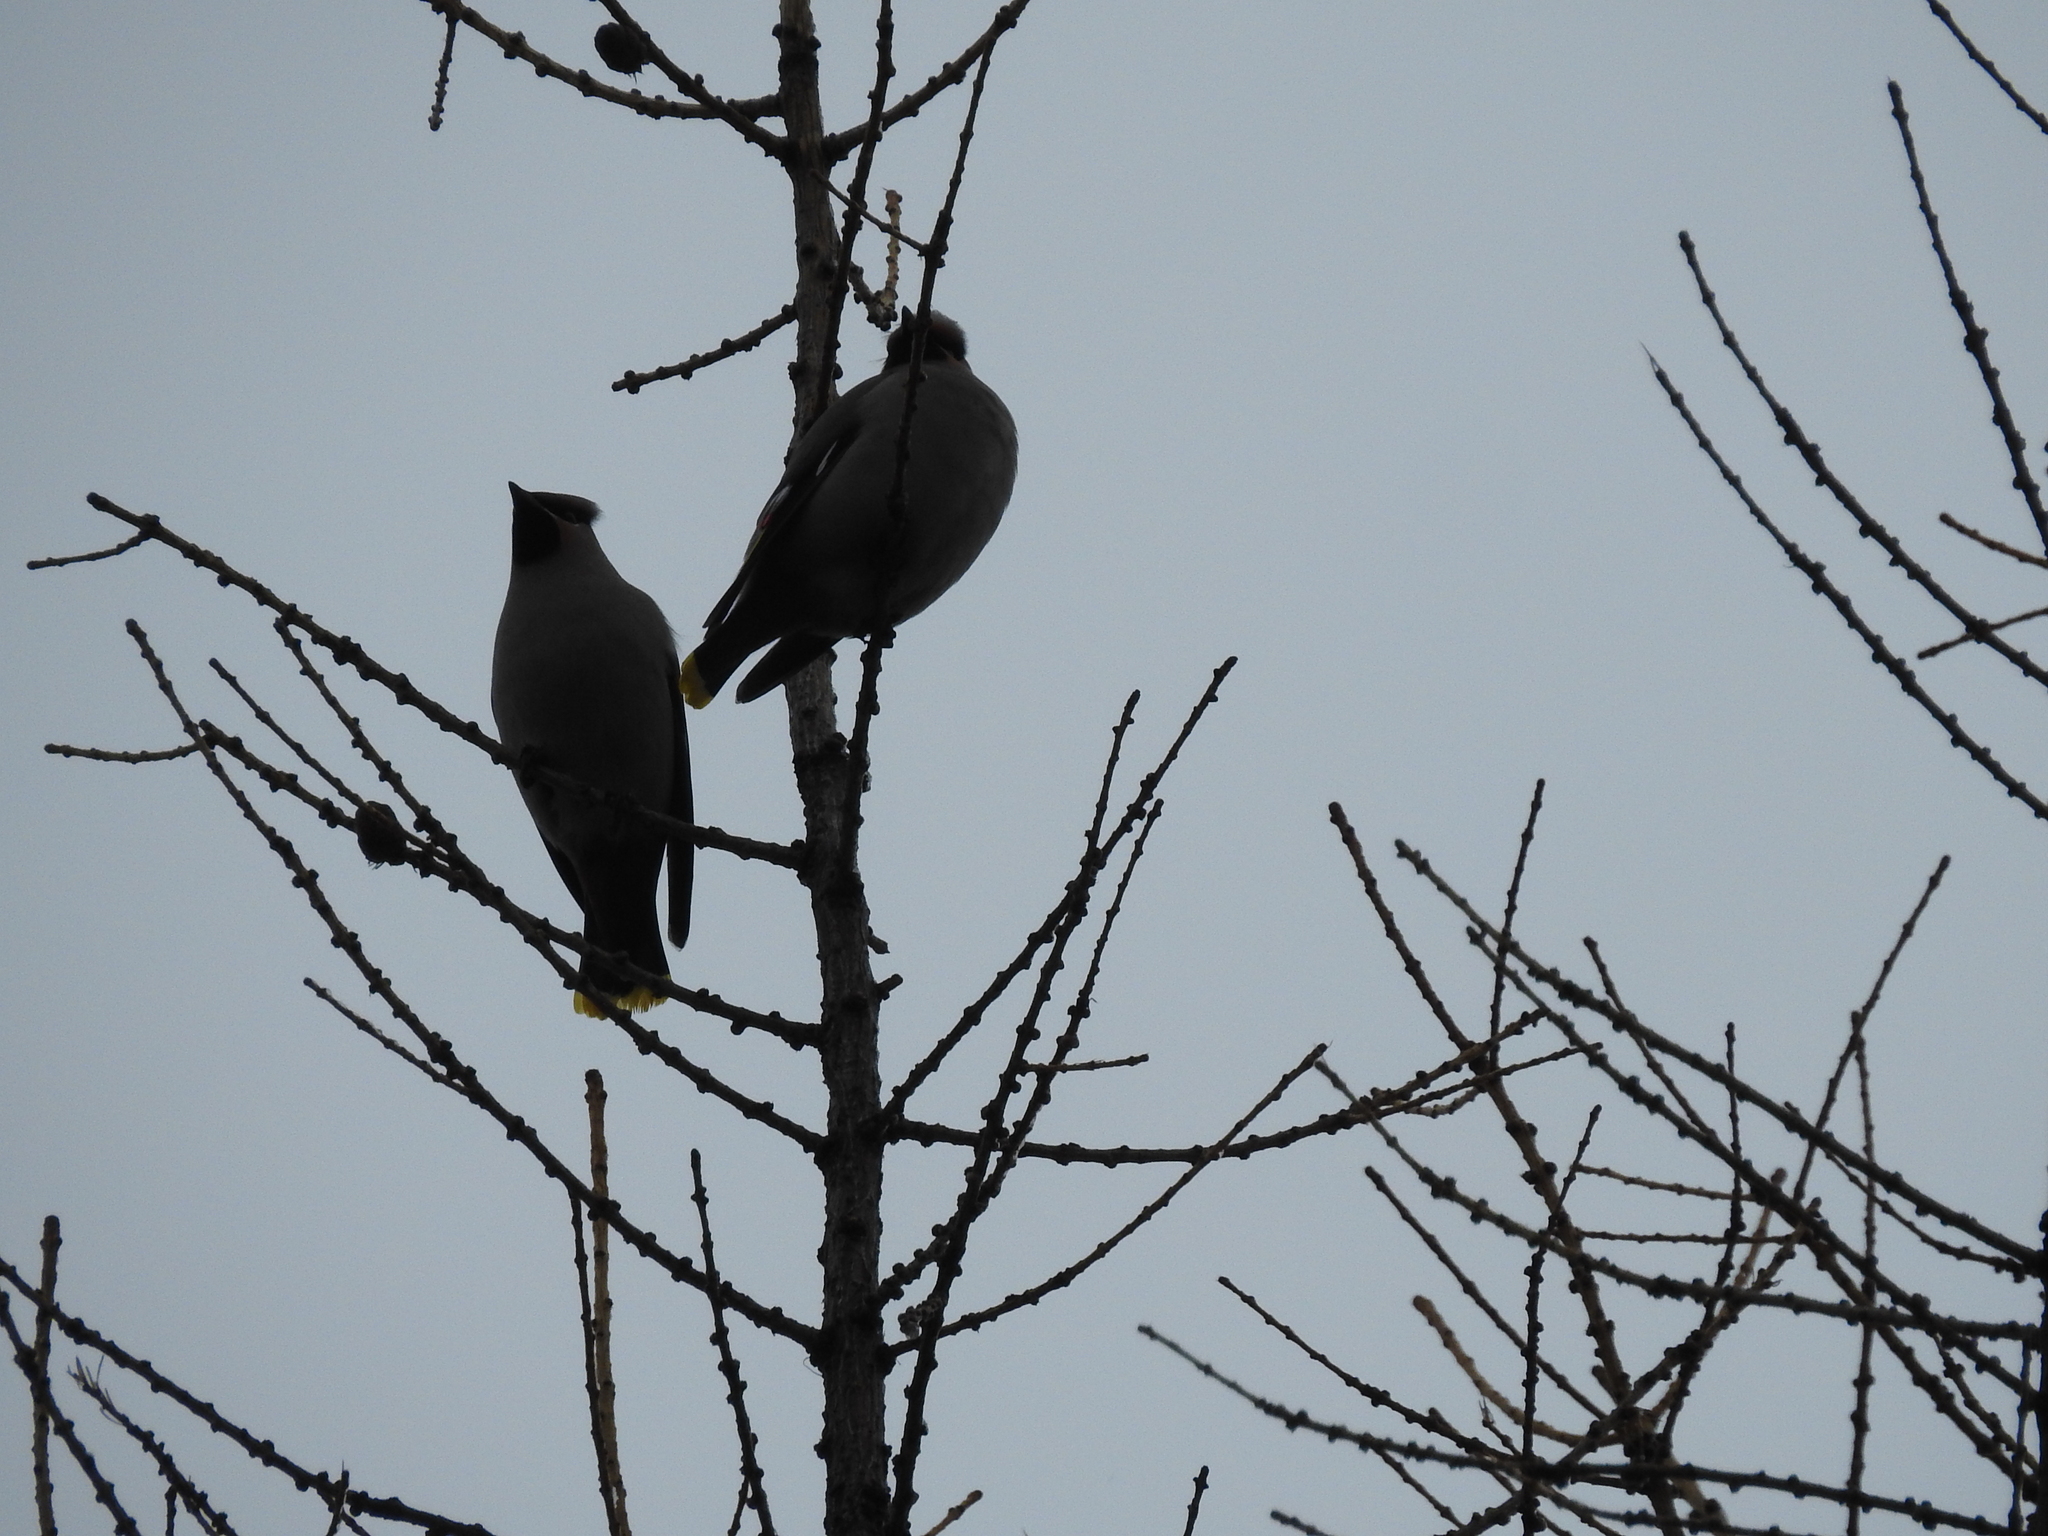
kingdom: Animalia
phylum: Chordata
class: Aves
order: Passeriformes
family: Bombycillidae
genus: Bombycilla
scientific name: Bombycilla garrulus
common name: Bohemian waxwing
